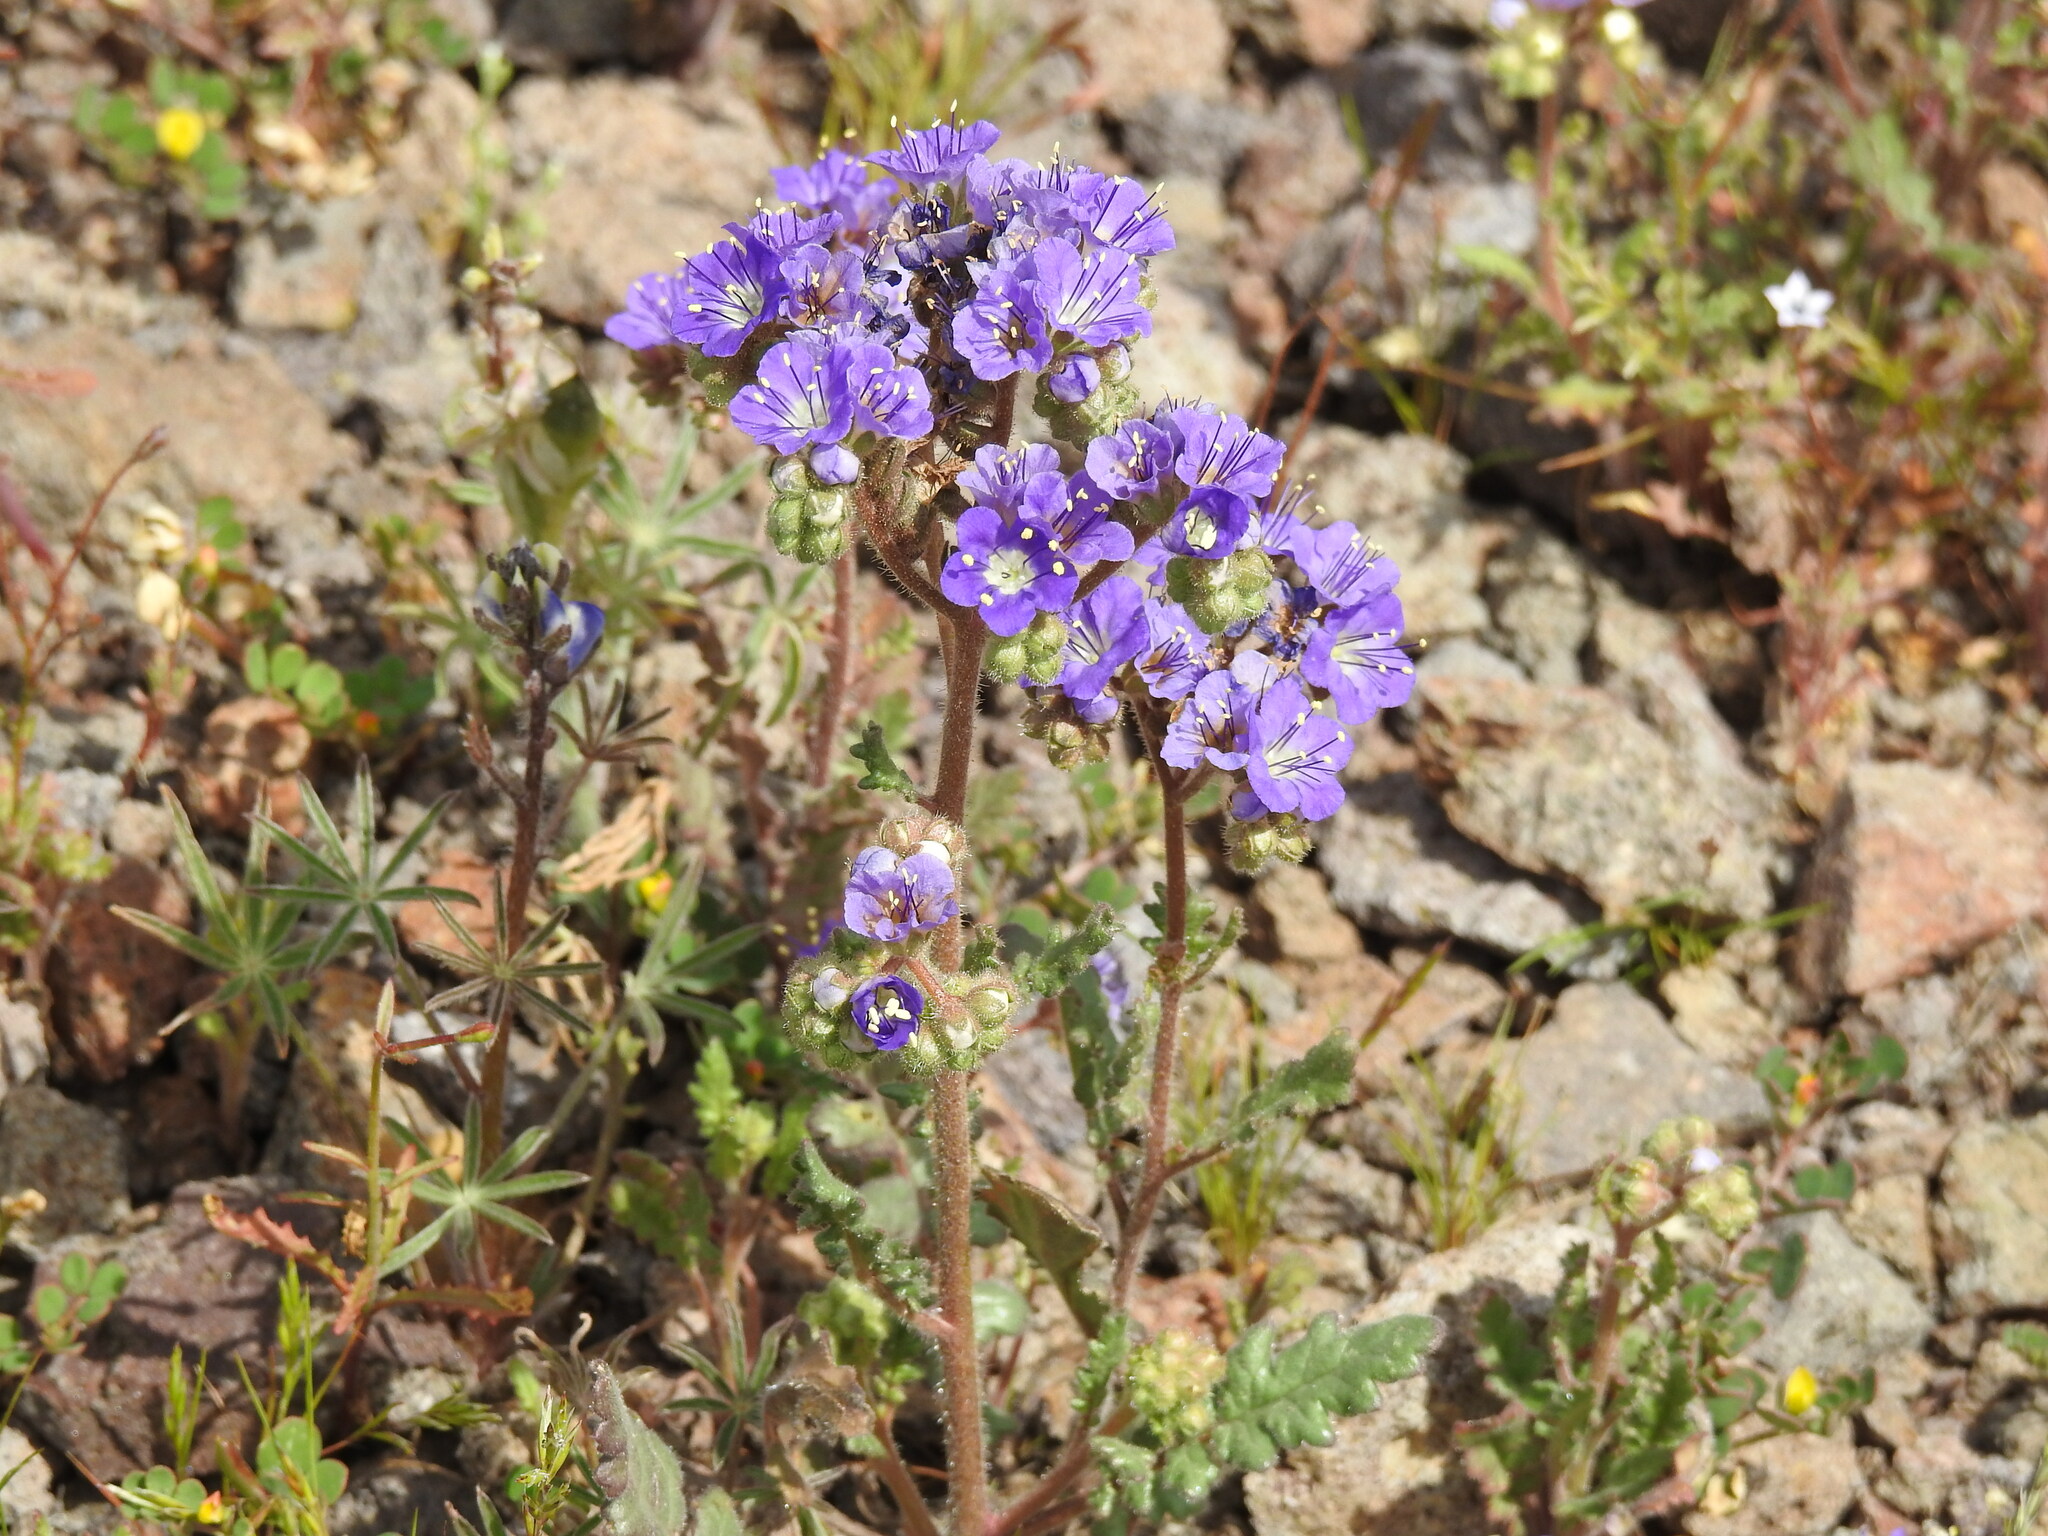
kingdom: Plantae
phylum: Tracheophyta
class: Magnoliopsida
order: Boraginales
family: Hydrophyllaceae
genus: Phacelia
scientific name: Phacelia crenulata
